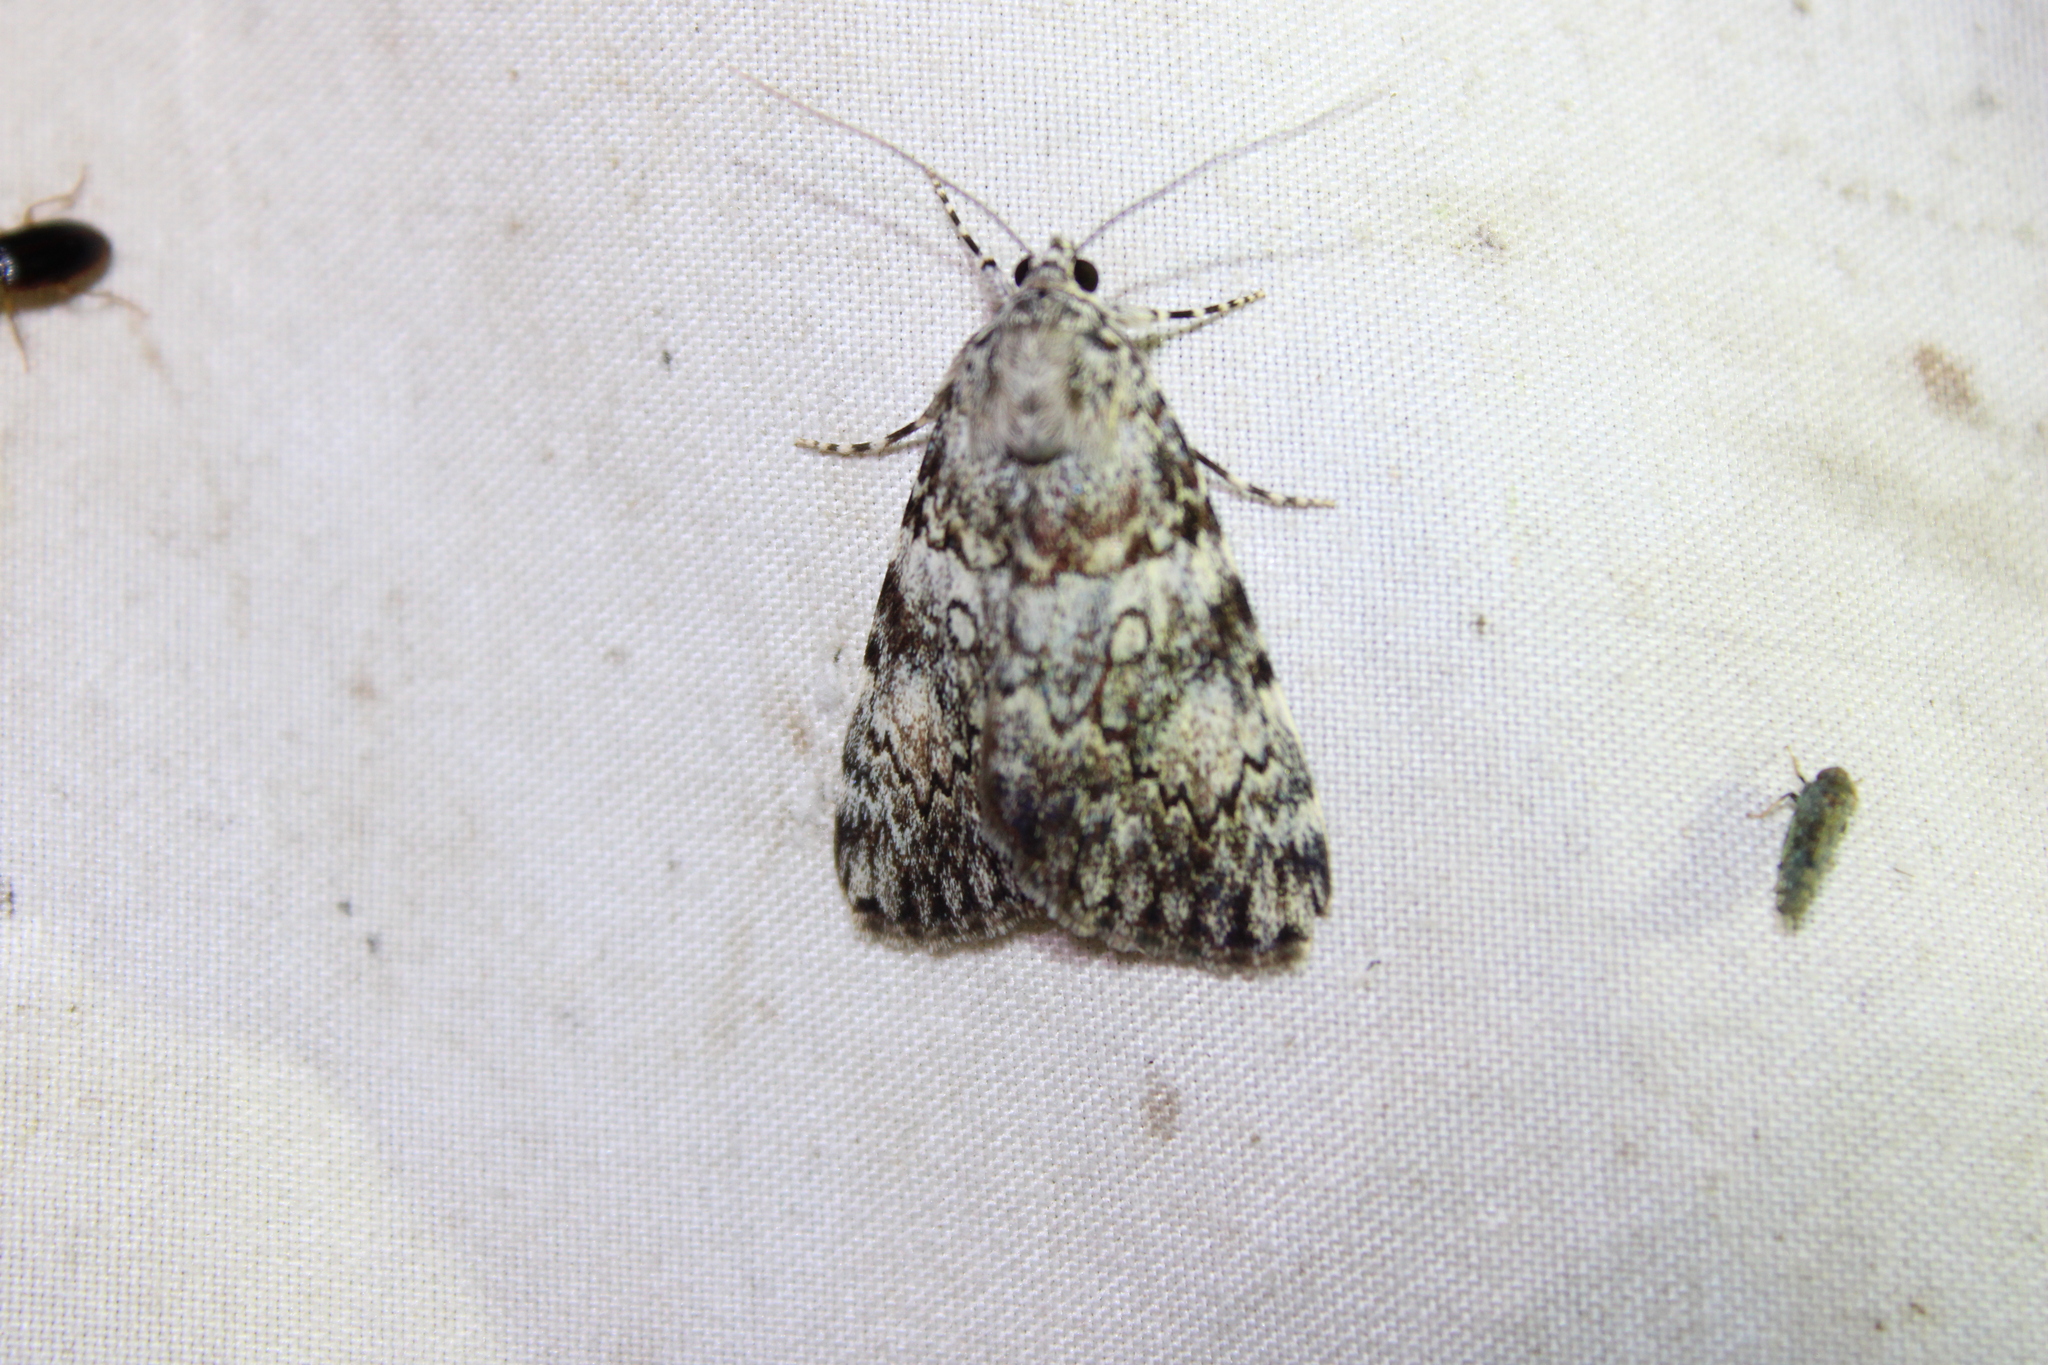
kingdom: Animalia
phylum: Arthropoda
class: Insecta
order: Lepidoptera
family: Erebidae
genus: Catocala
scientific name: Catocala lineella
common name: Little lined underwing
